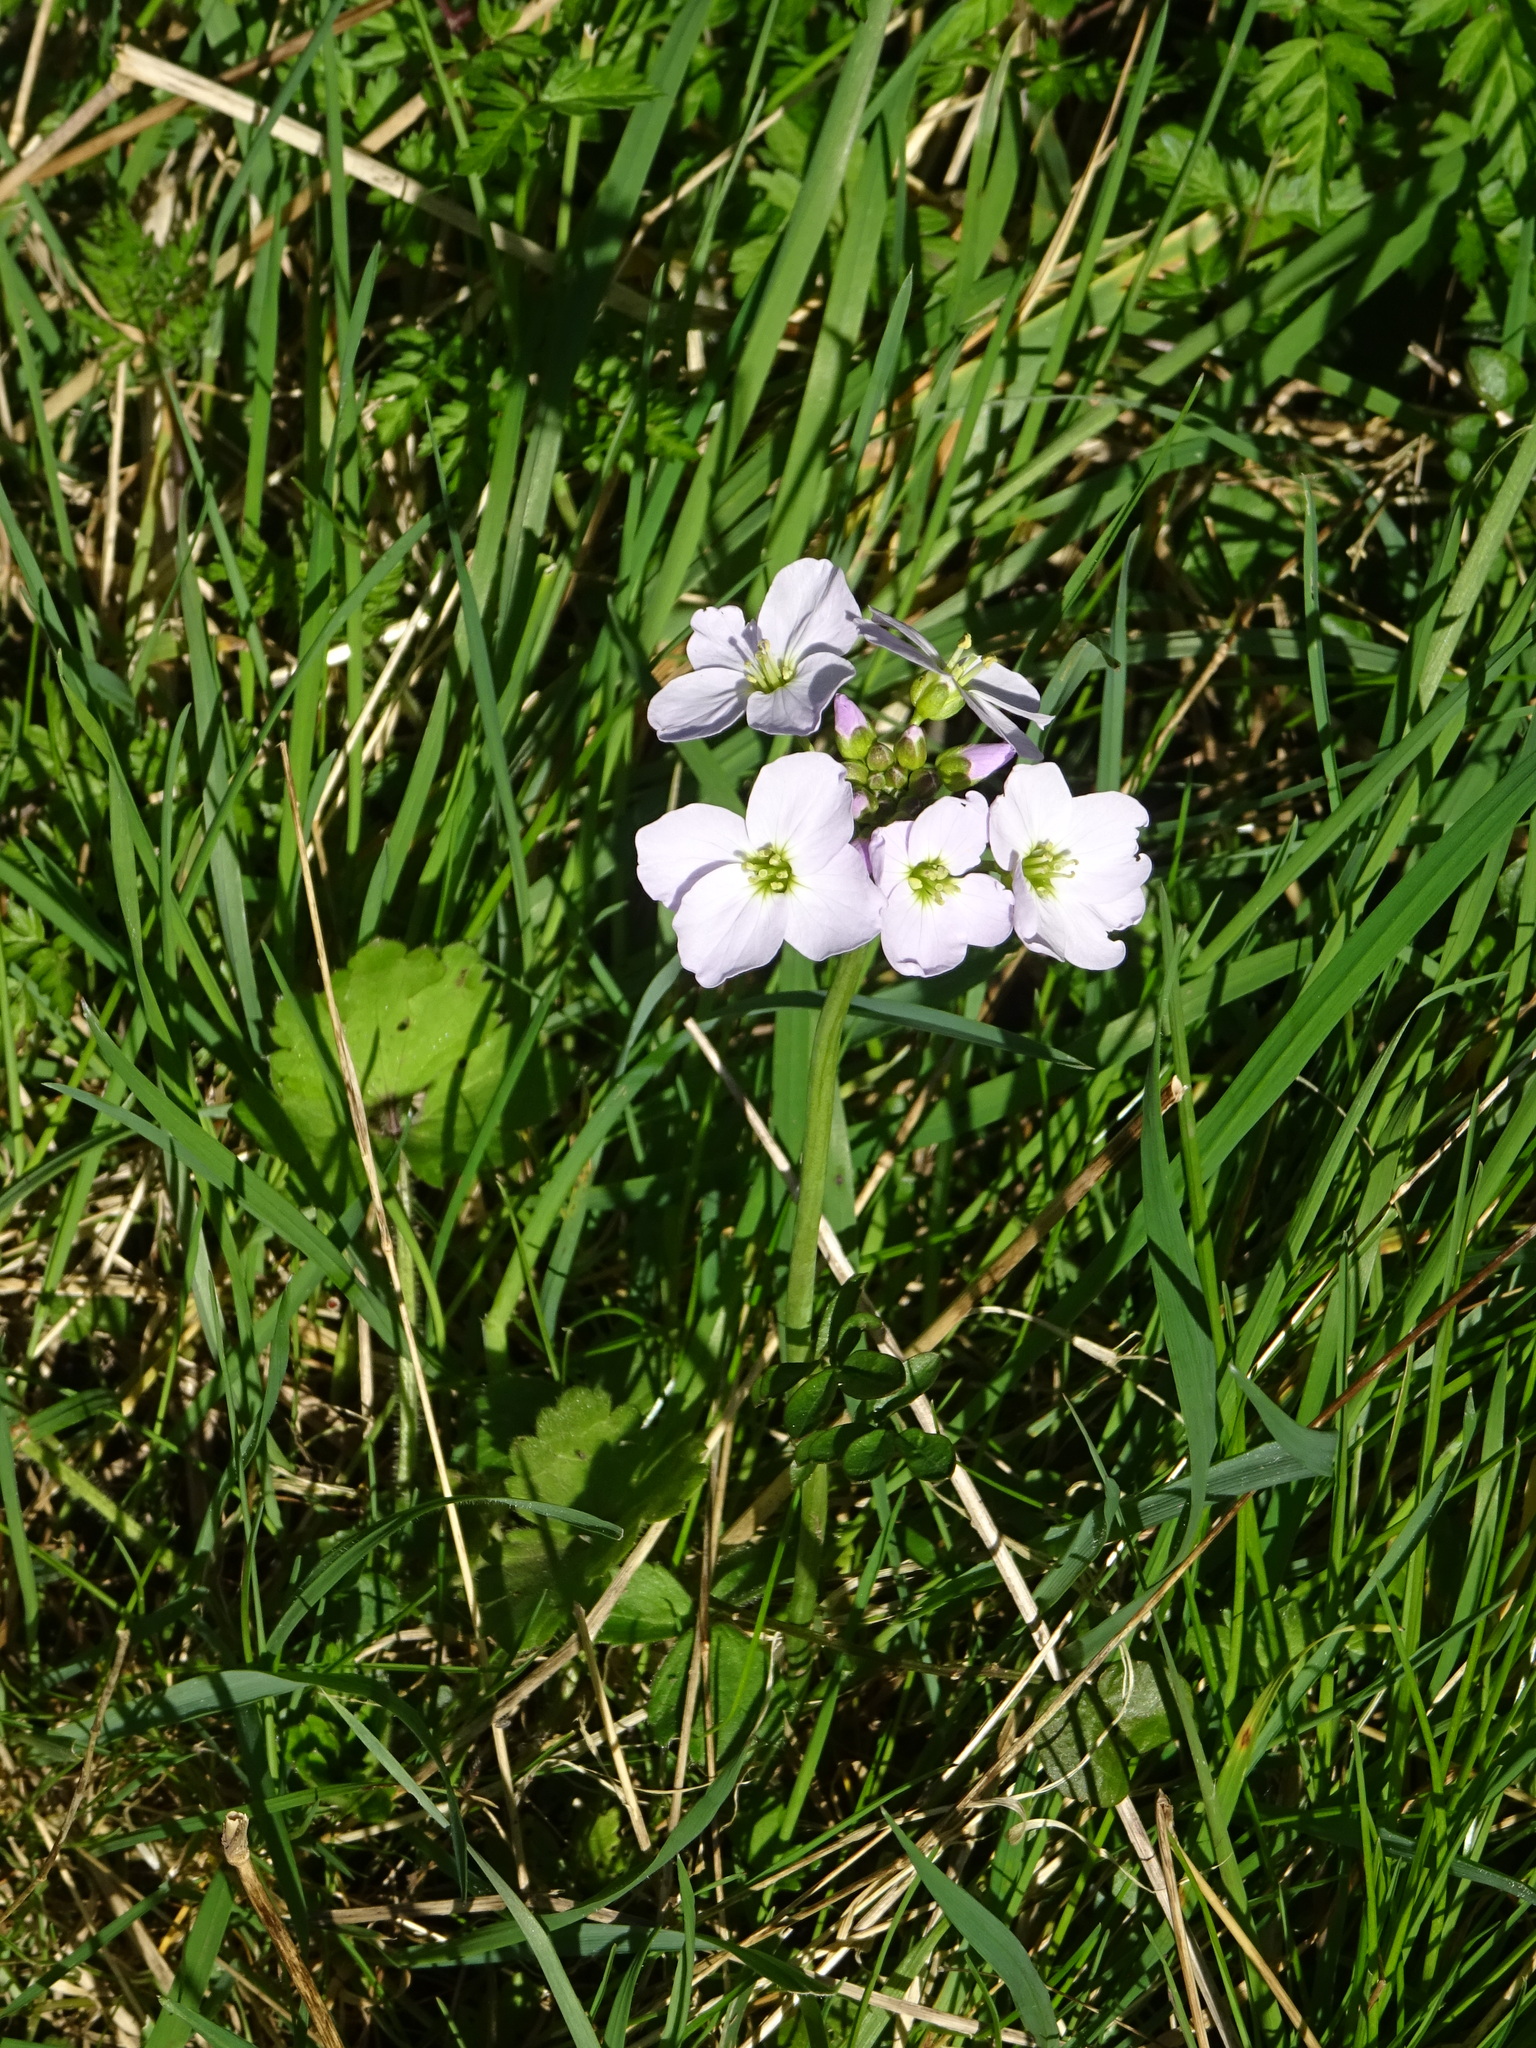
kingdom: Plantae
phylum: Tracheophyta
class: Magnoliopsida
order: Brassicales
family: Brassicaceae
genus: Cardamine
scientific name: Cardamine pratensis
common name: Cuckoo flower
